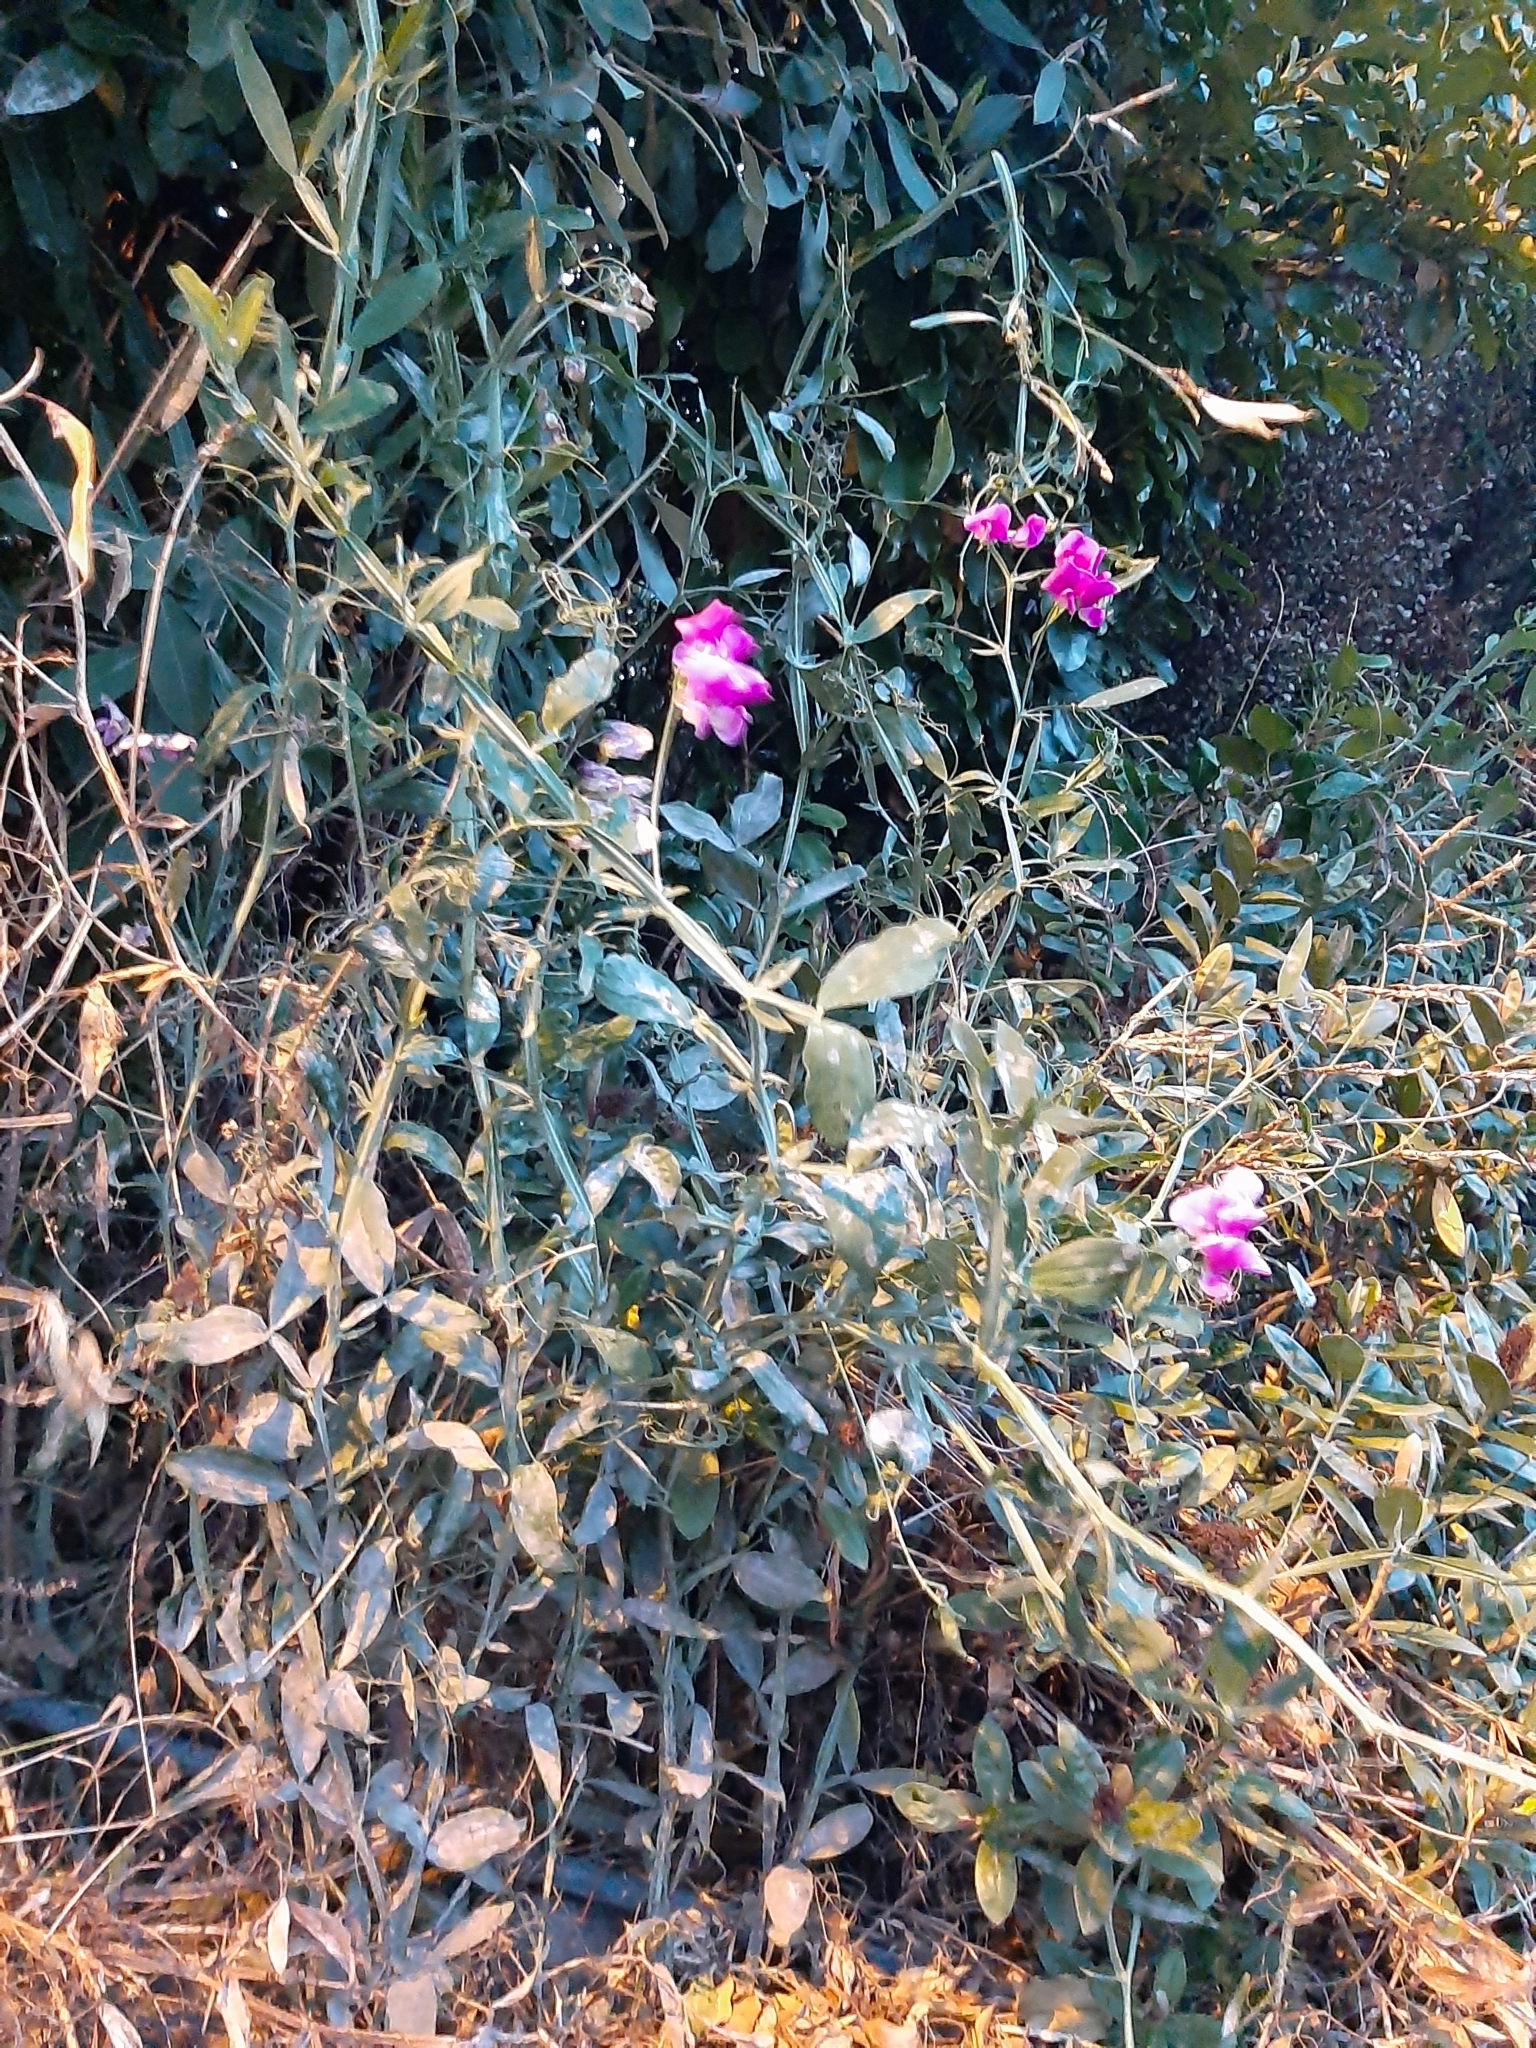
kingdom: Plantae
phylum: Tracheophyta
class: Magnoliopsida
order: Fabales
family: Fabaceae
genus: Lathyrus
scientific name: Lathyrus latifolius
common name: Perennial pea
